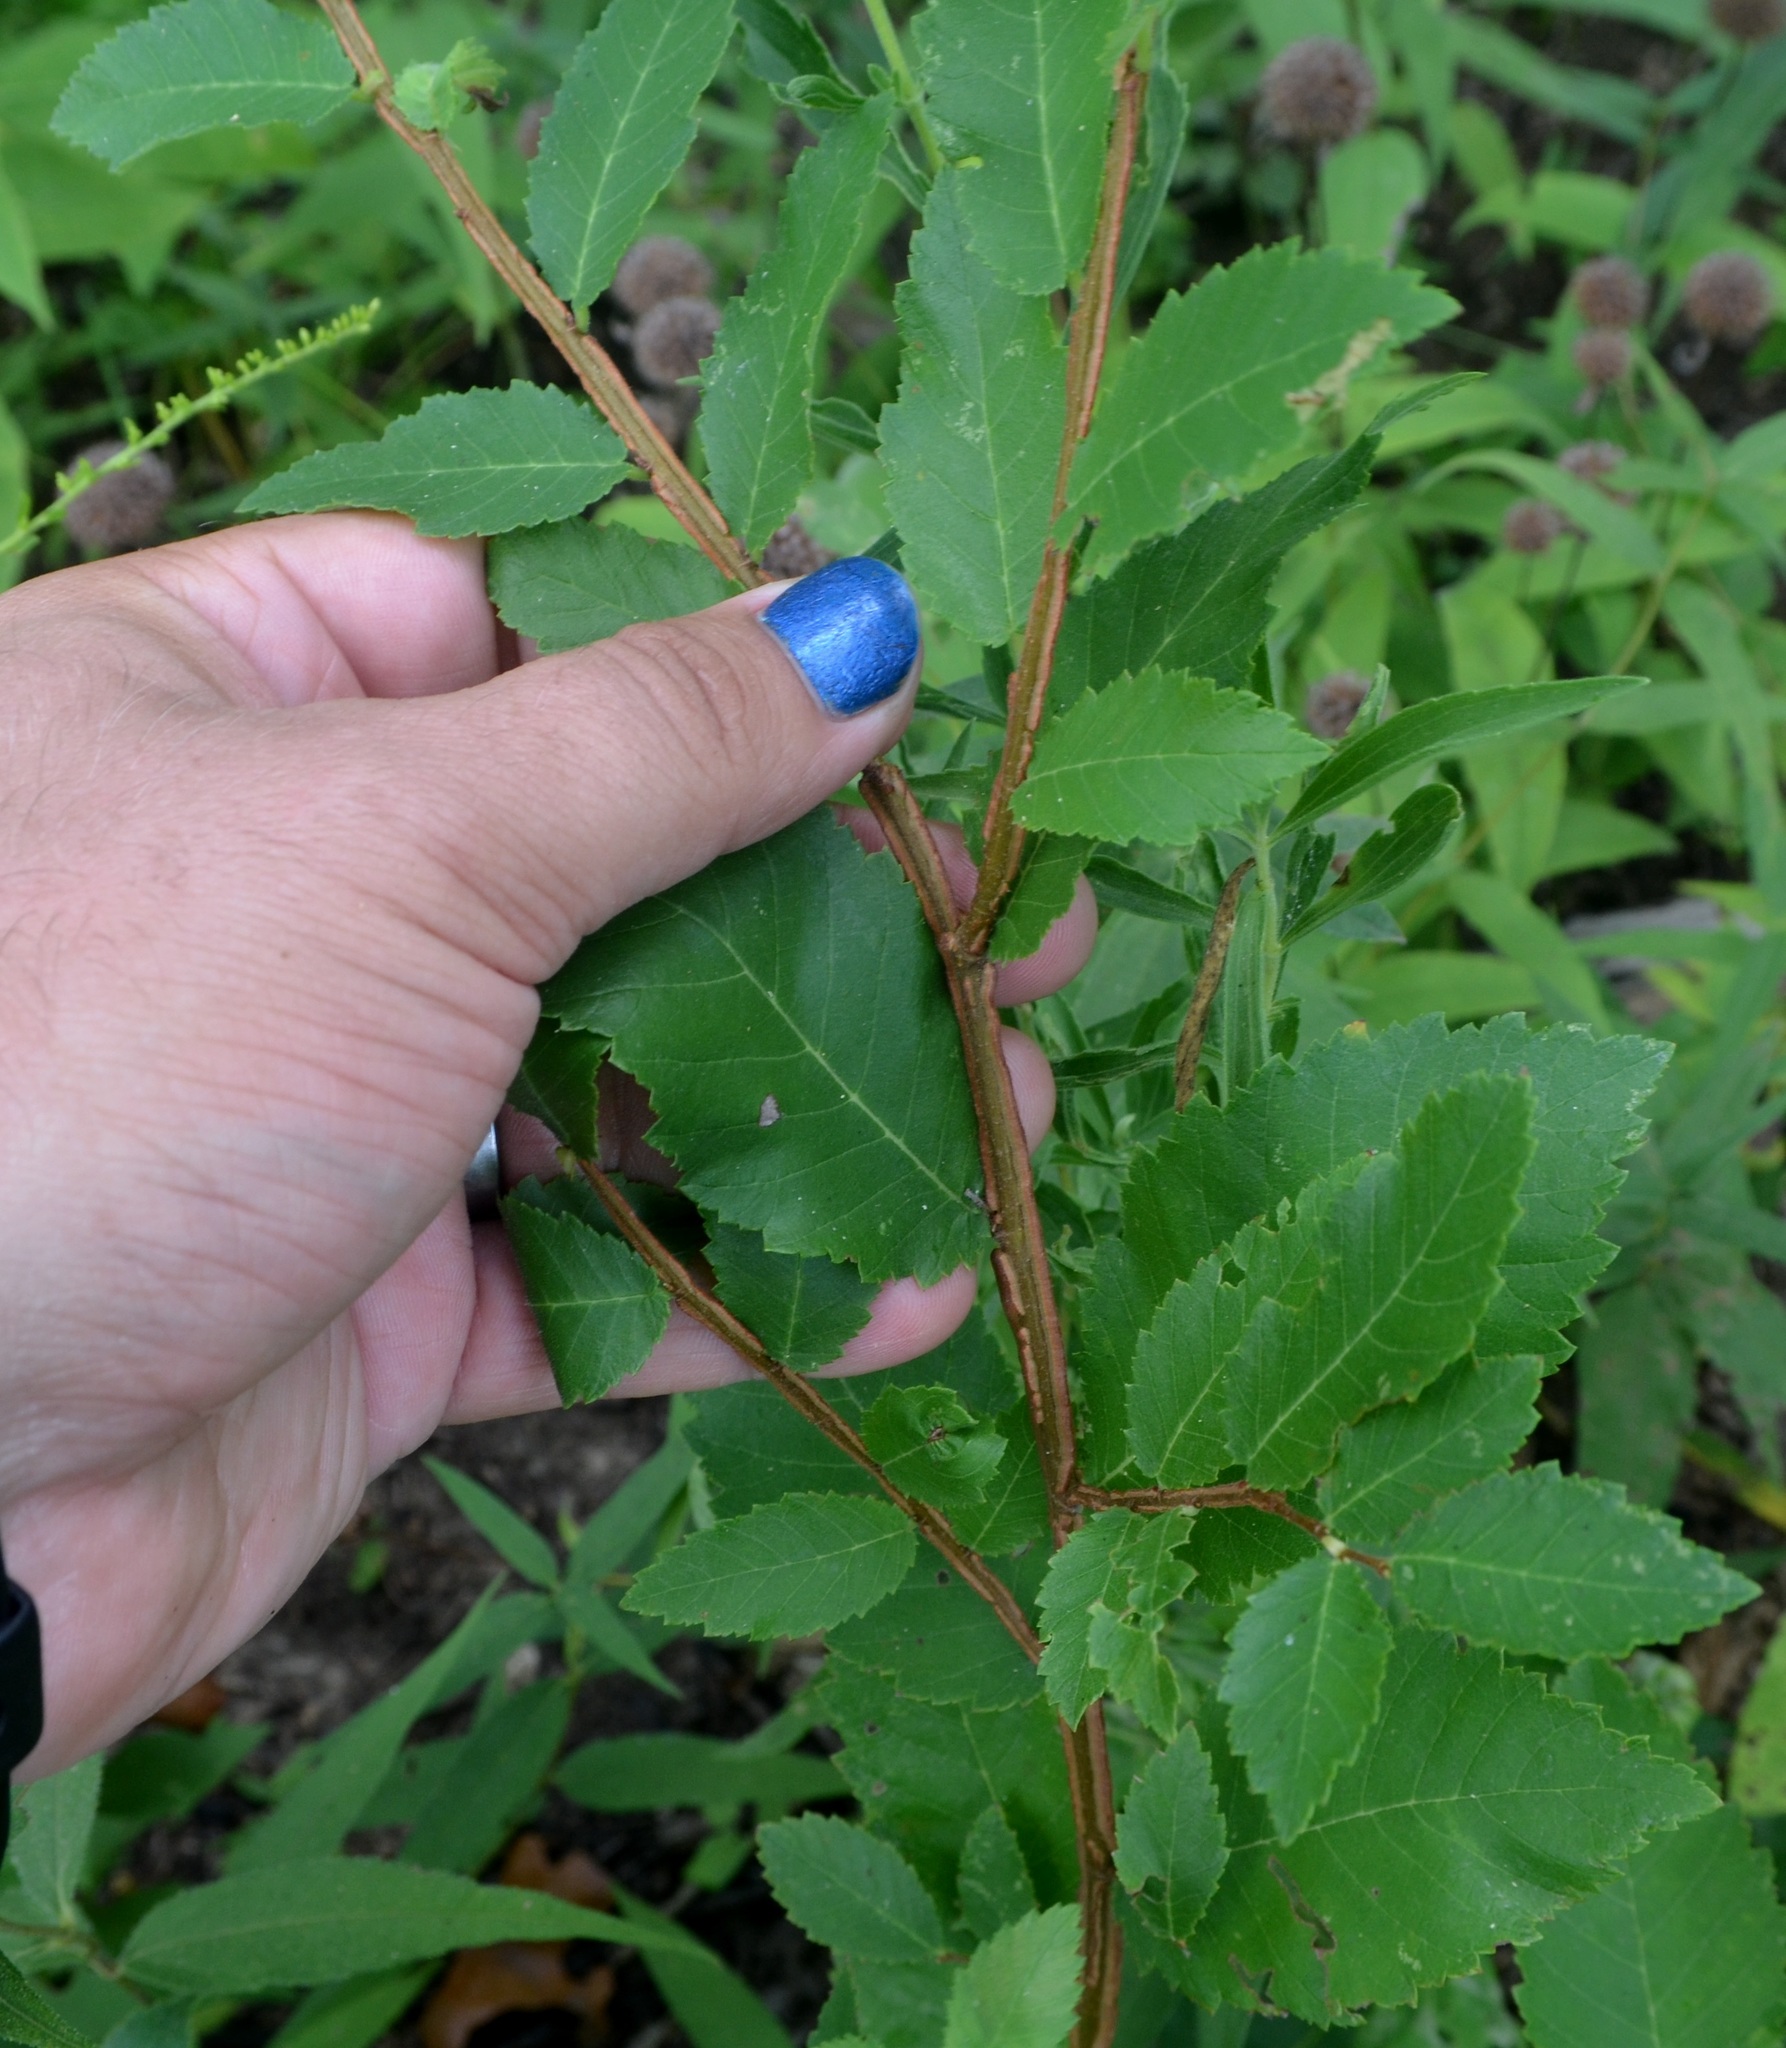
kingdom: Plantae
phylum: Tracheophyta
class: Magnoliopsida
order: Rosales
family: Ulmaceae
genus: Ulmus
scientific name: Ulmus alata
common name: Winged elm
